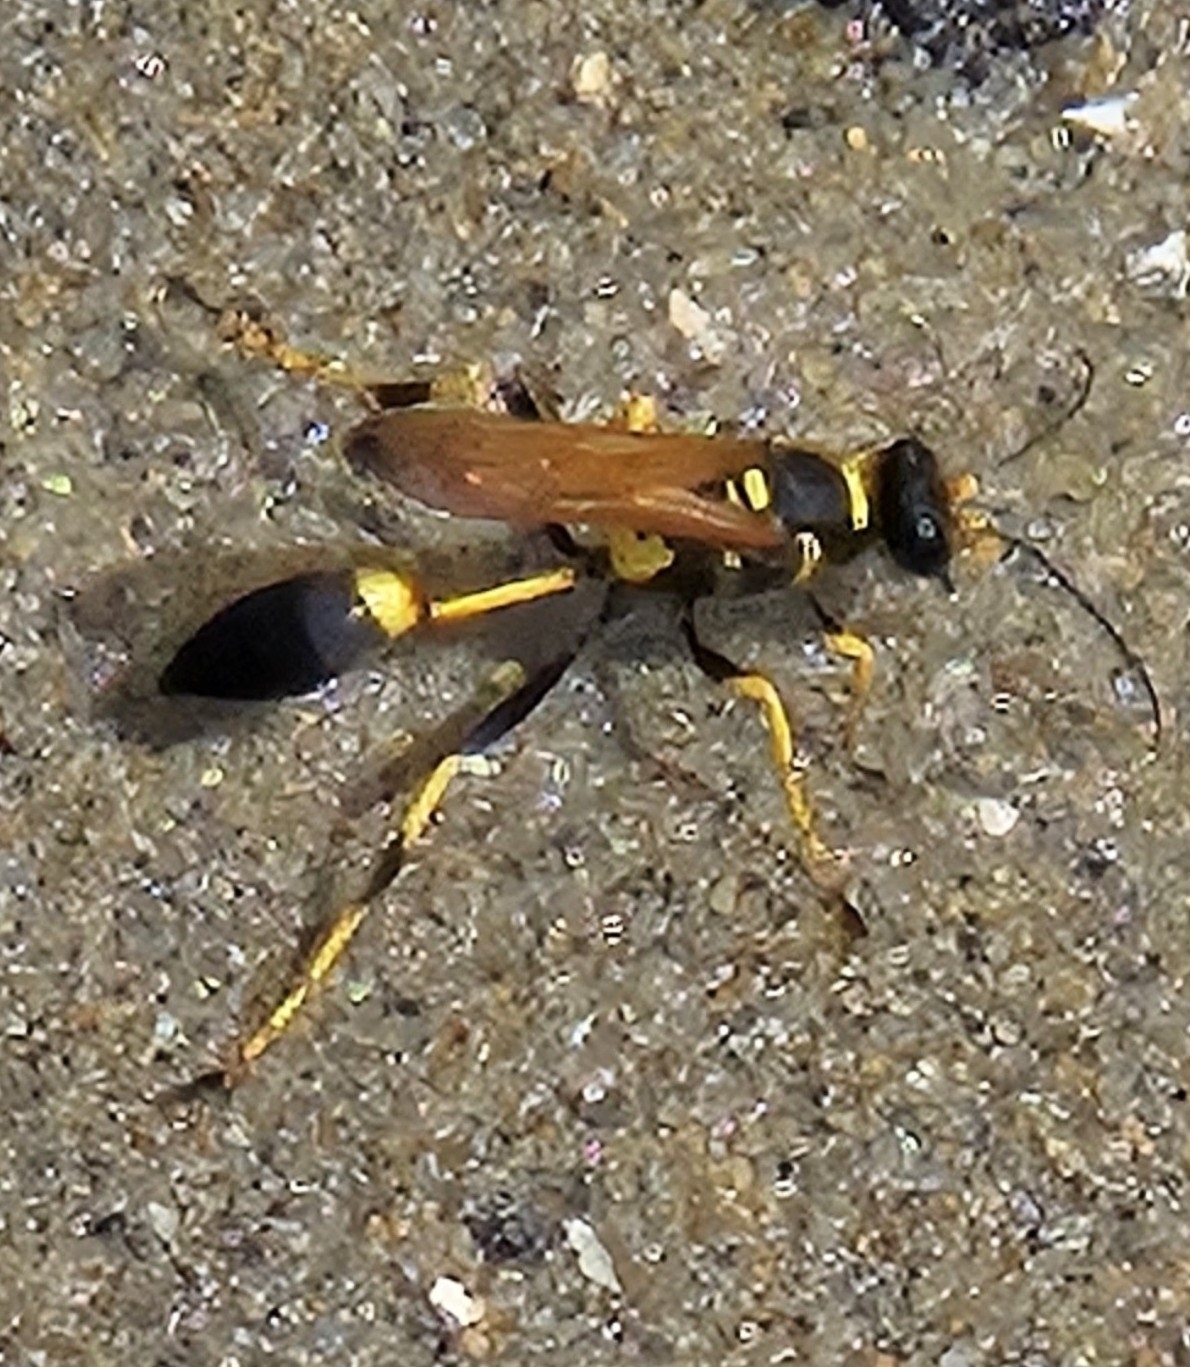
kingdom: Animalia
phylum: Arthropoda
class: Insecta
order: Hymenoptera
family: Sphecidae
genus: Sceliphron
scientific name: Sceliphron caementarium
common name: Mud dauber
